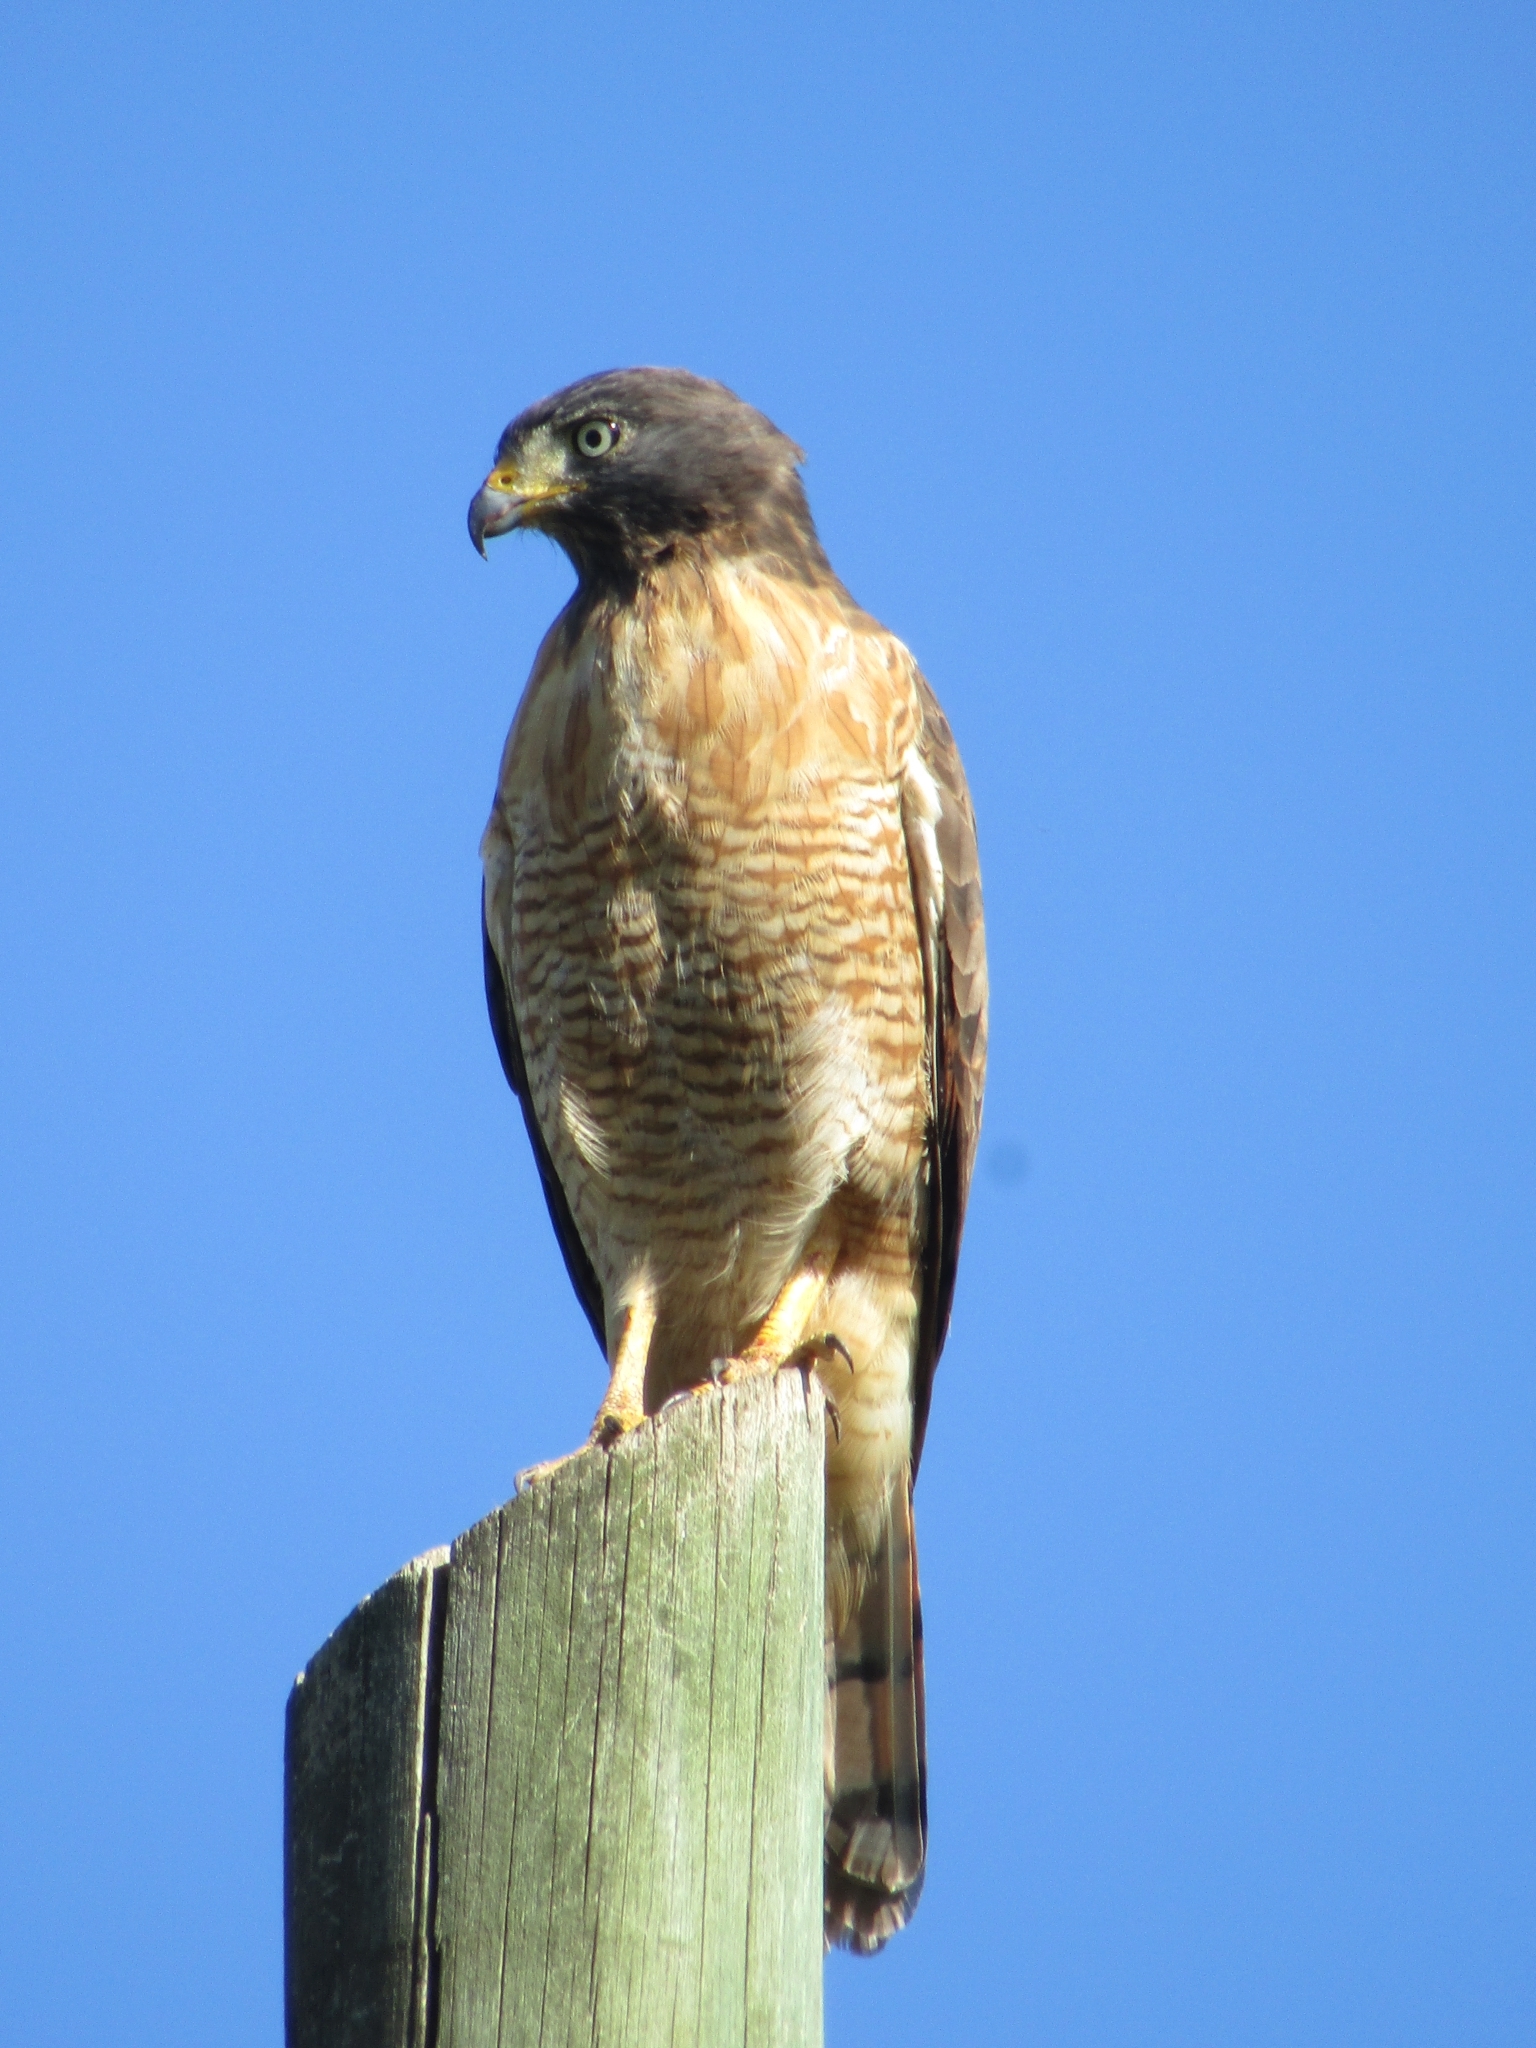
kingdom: Animalia
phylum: Chordata
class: Aves
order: Accipitriformes
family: Accipitridae
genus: Rupornis
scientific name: Rupornis magnirostris
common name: Roadside hawk
